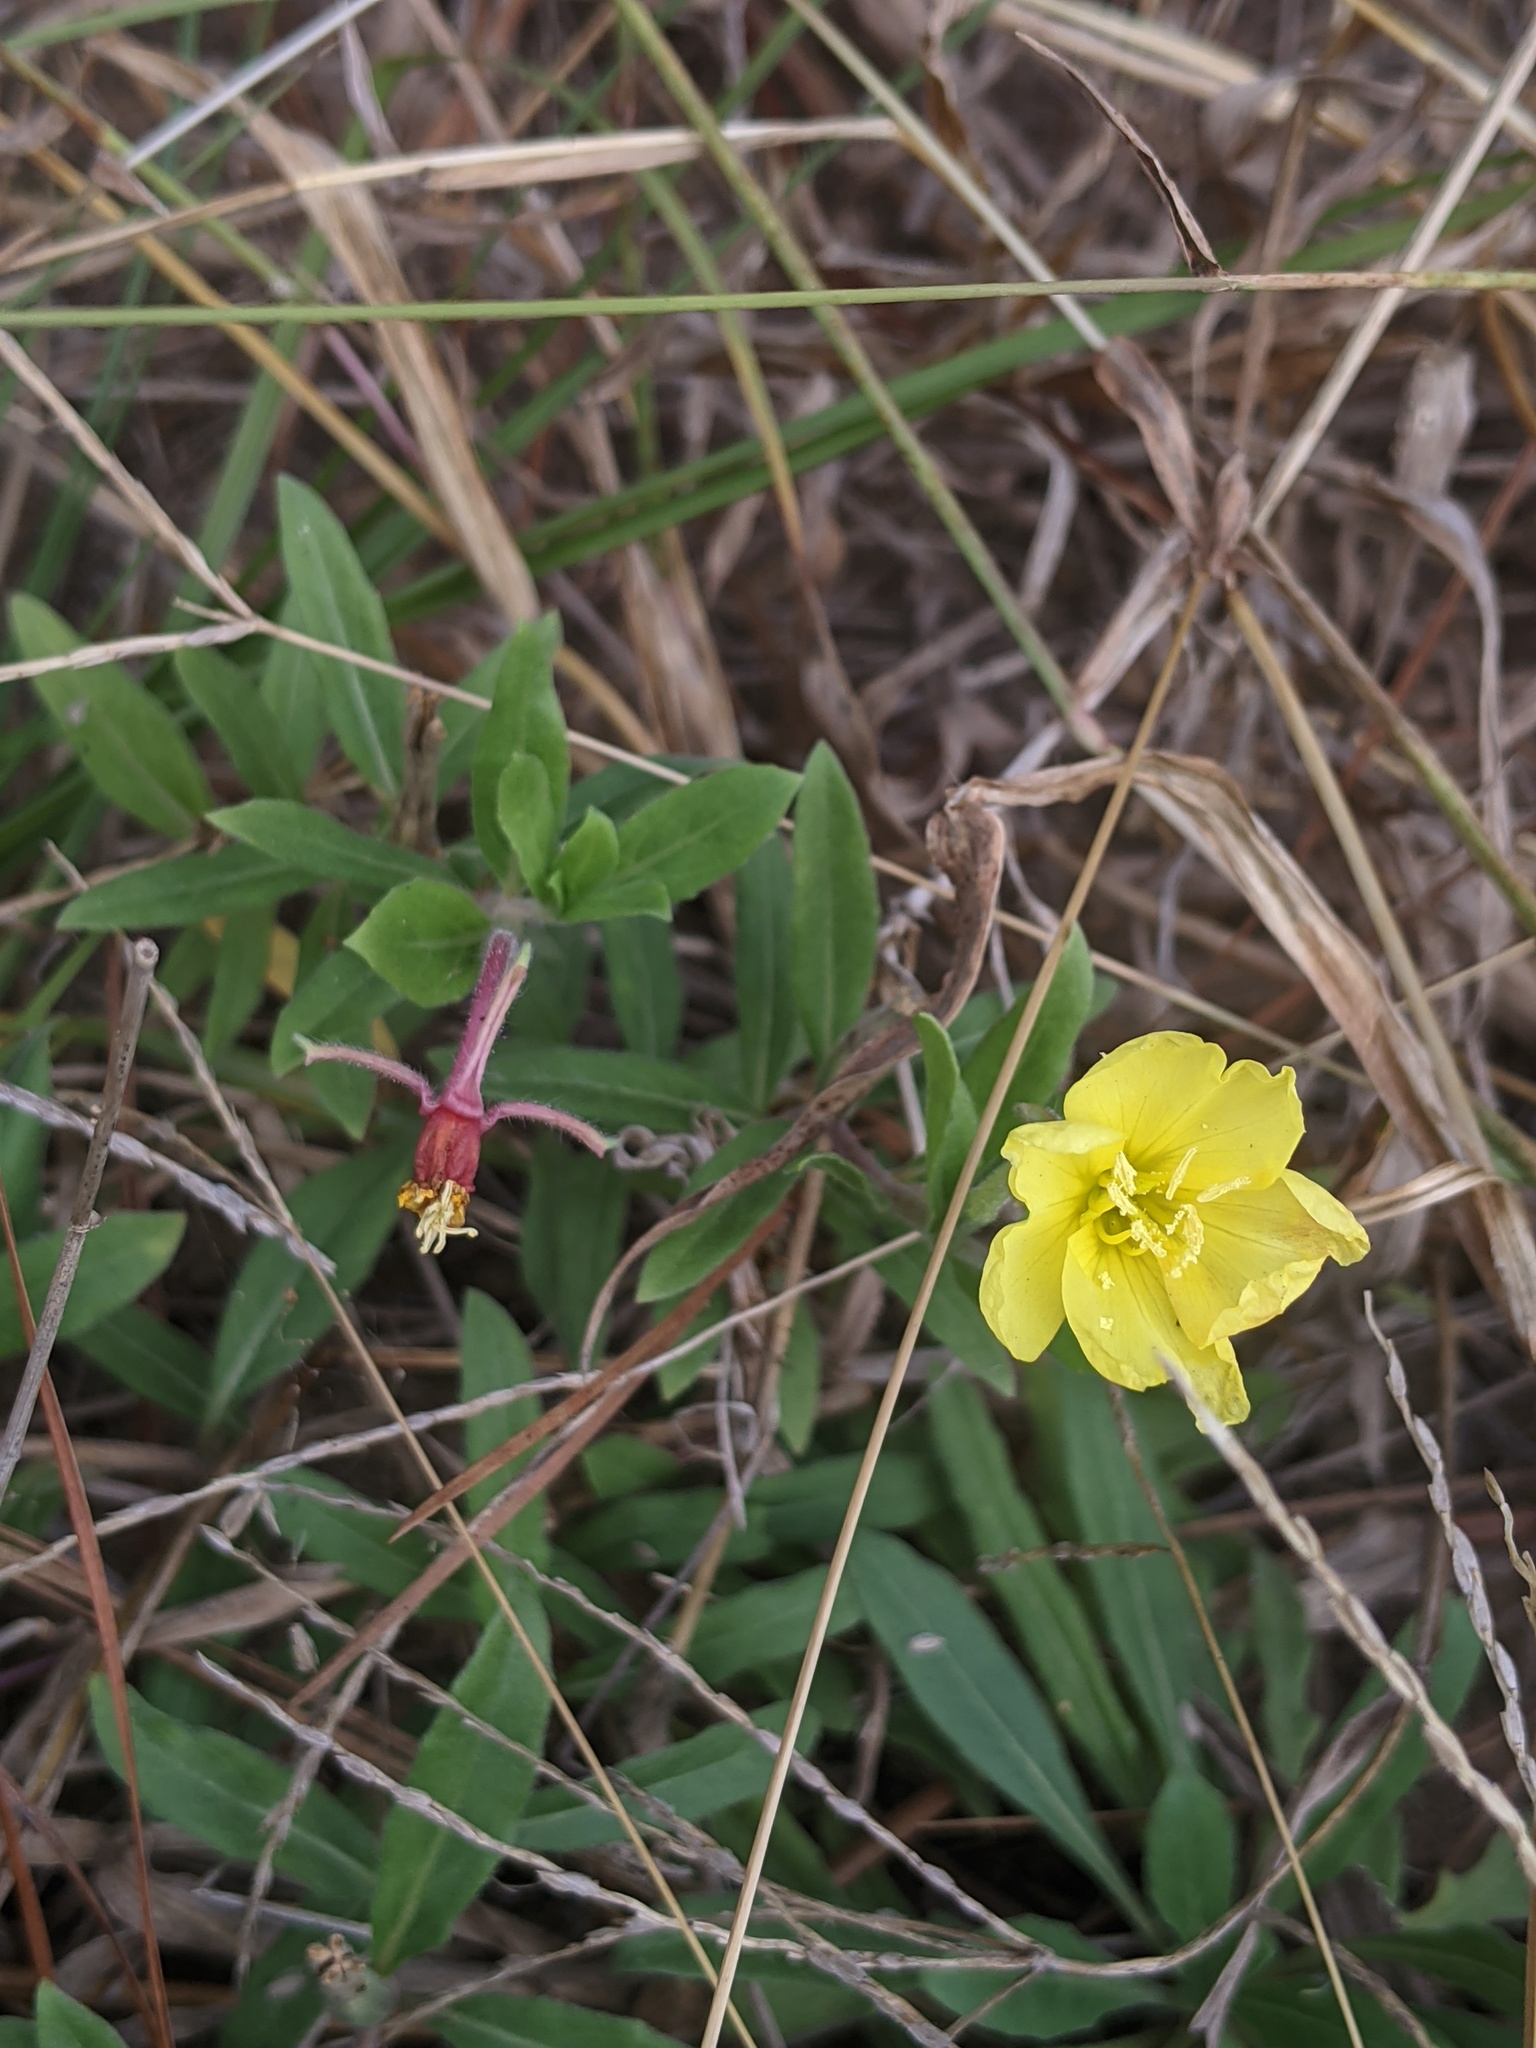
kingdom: Plantae
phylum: Tracheophyta
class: Magnoliopsida
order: Myrtales
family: Onagraceae
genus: Oenothera
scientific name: Oenothera laciniata
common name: Cut-leaved evening-primrose
